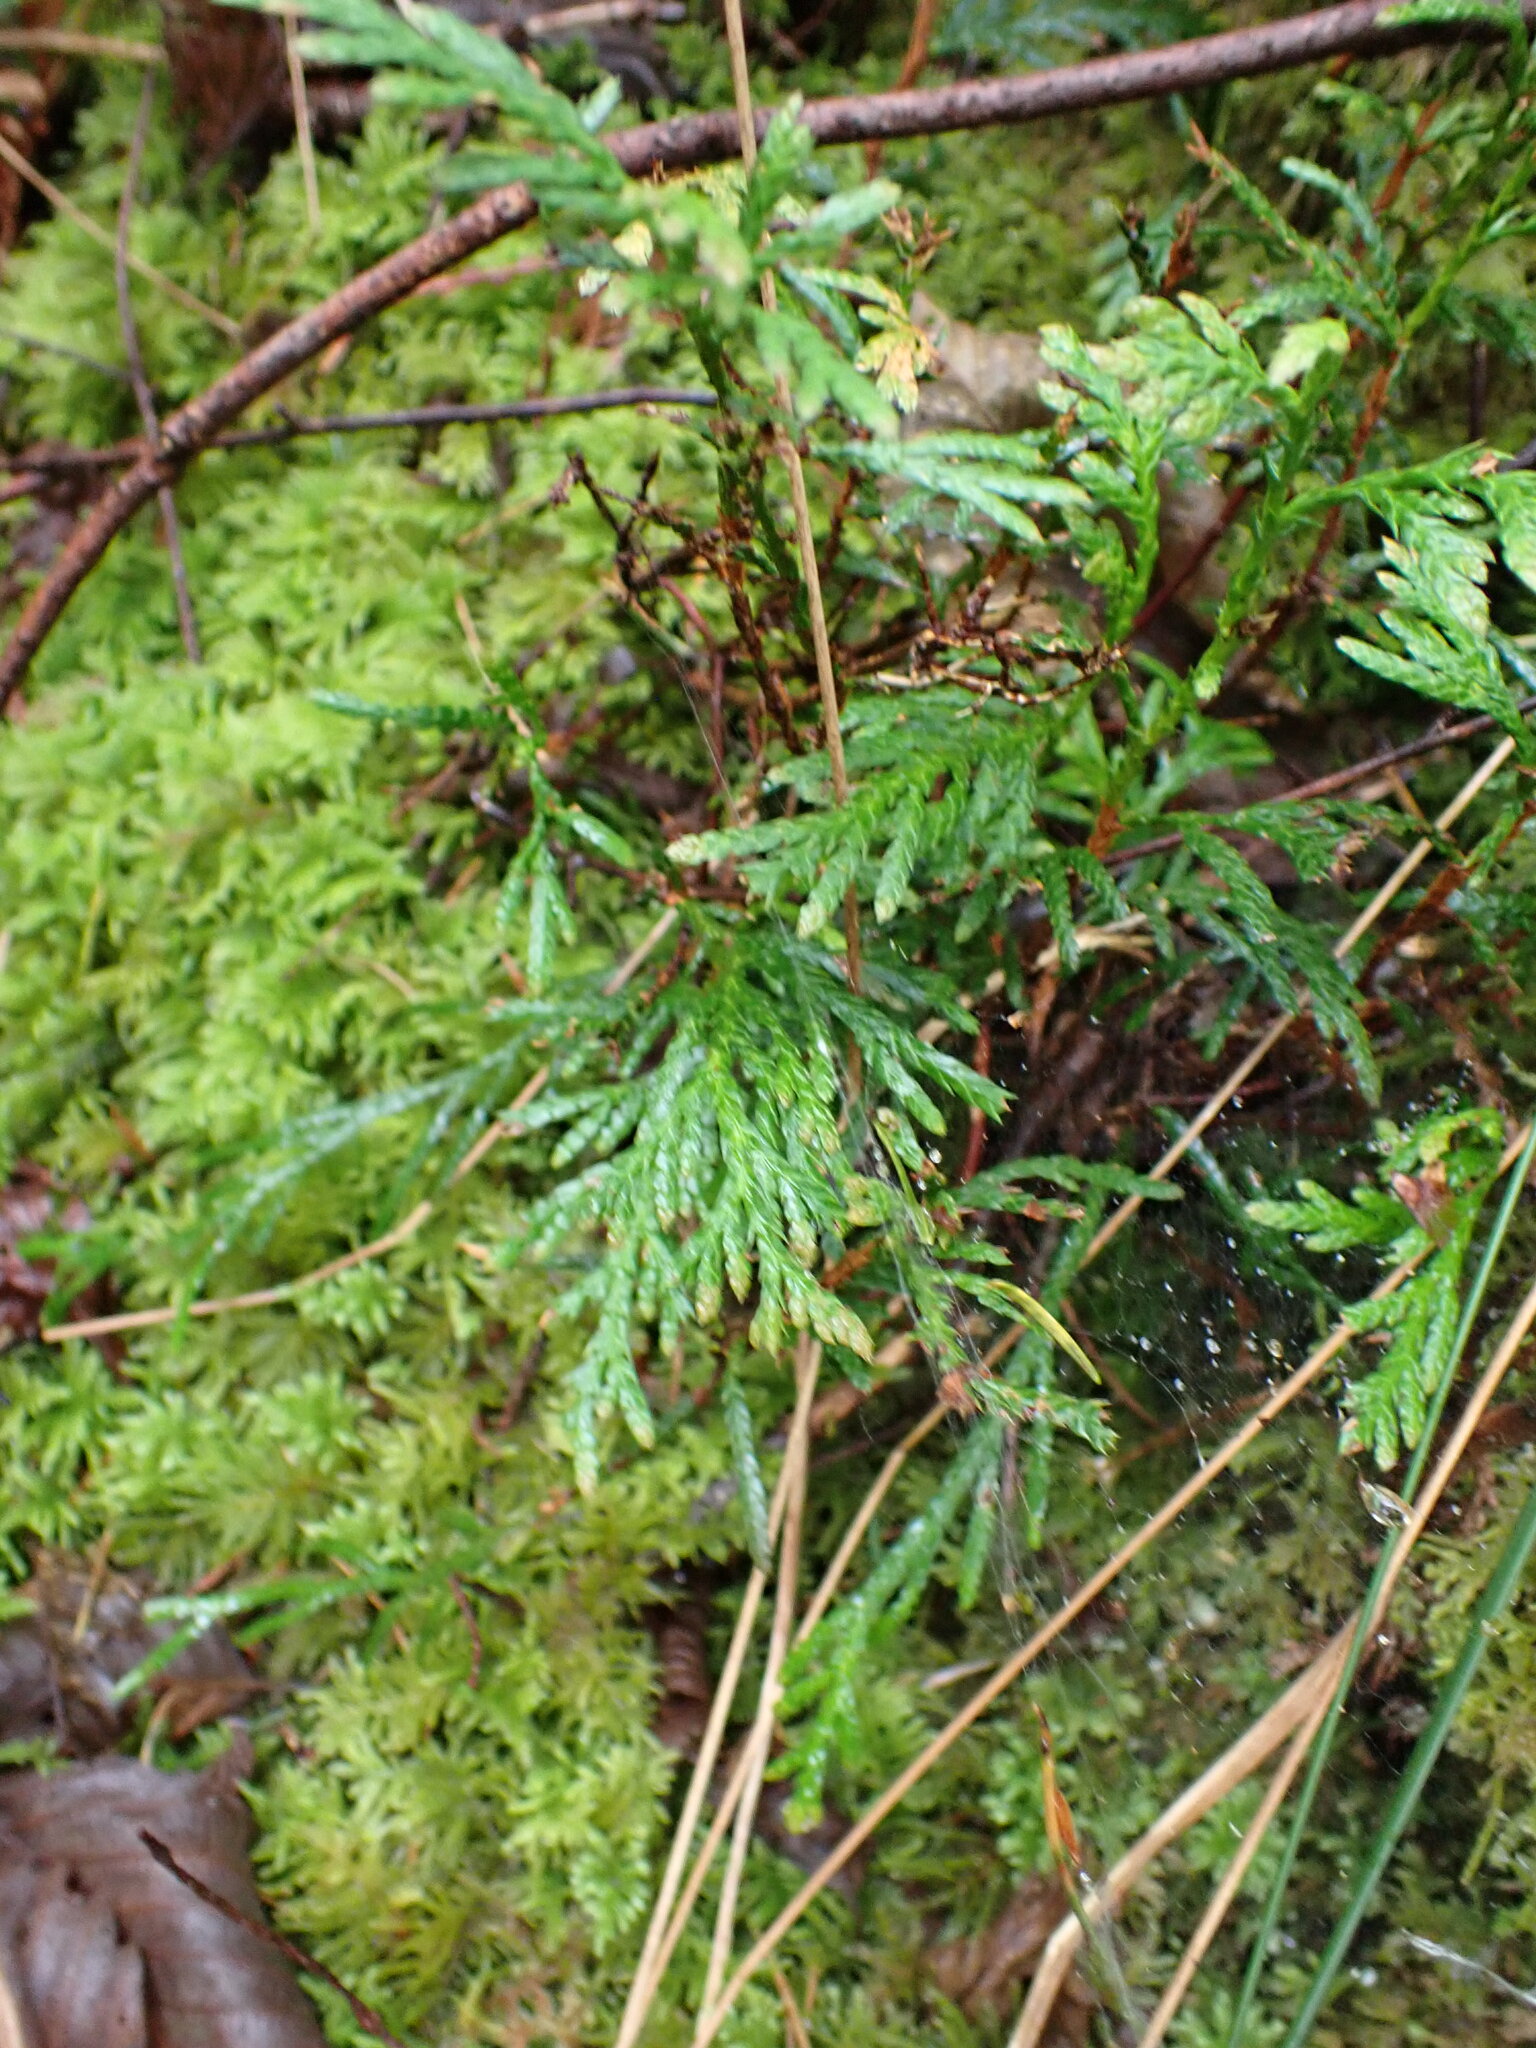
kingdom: Plantae
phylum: Tracheophyta
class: Pinopsida
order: Pinales
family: Cupressaceae
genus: Thuja
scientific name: Thuja plicata
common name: Western red-cedar
